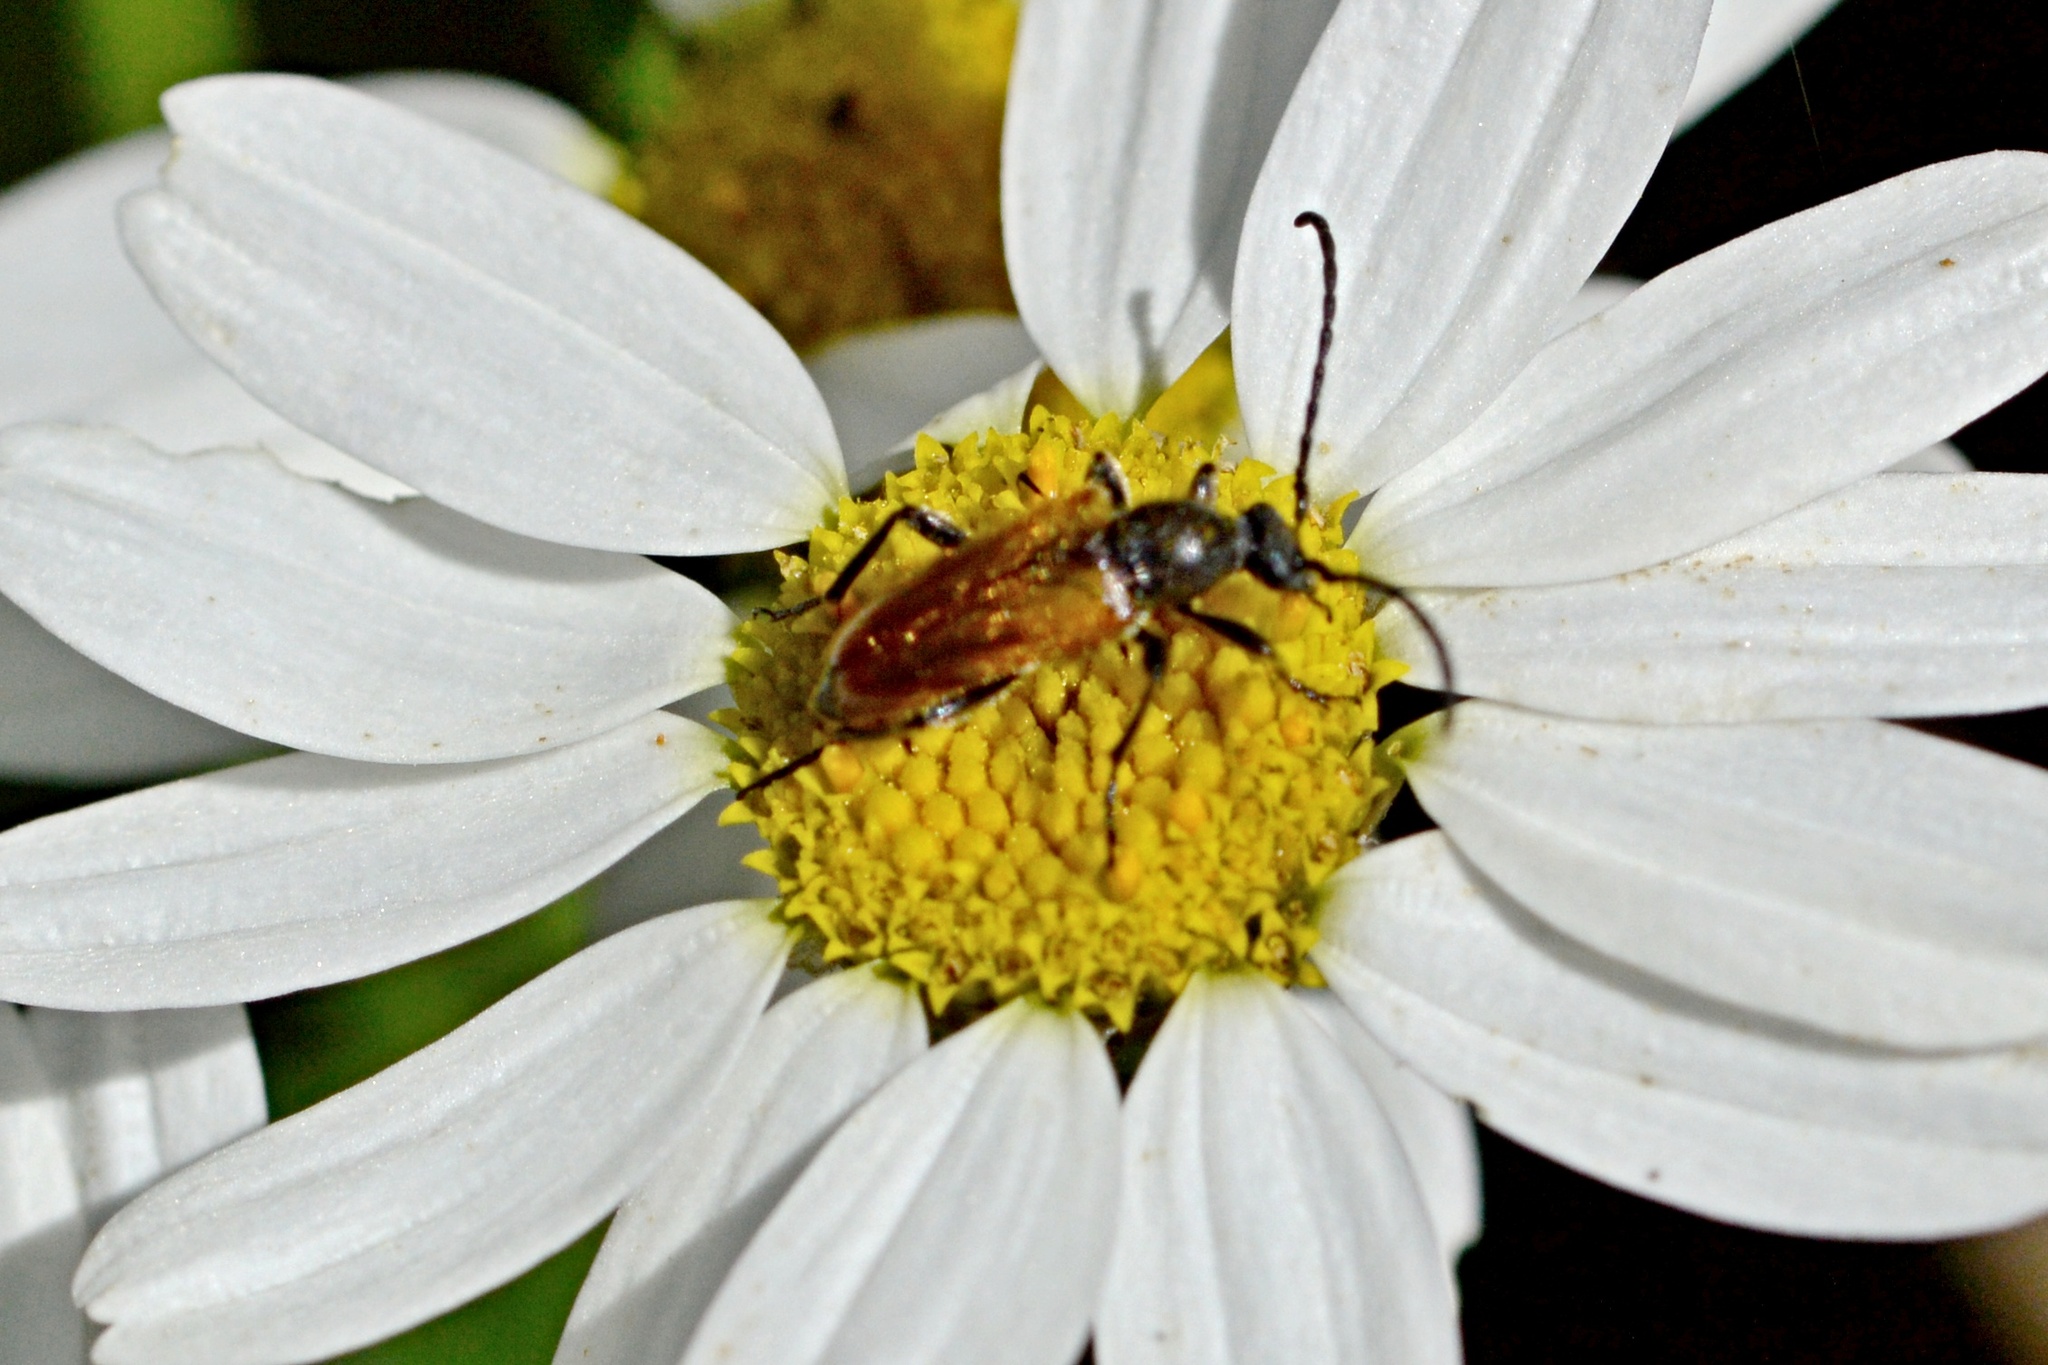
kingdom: Animalia
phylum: Arthropoda
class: Insecta
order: Coleoptera
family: Cerambycidae
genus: Pseudovadonia
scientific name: Pseudovadonia livida
